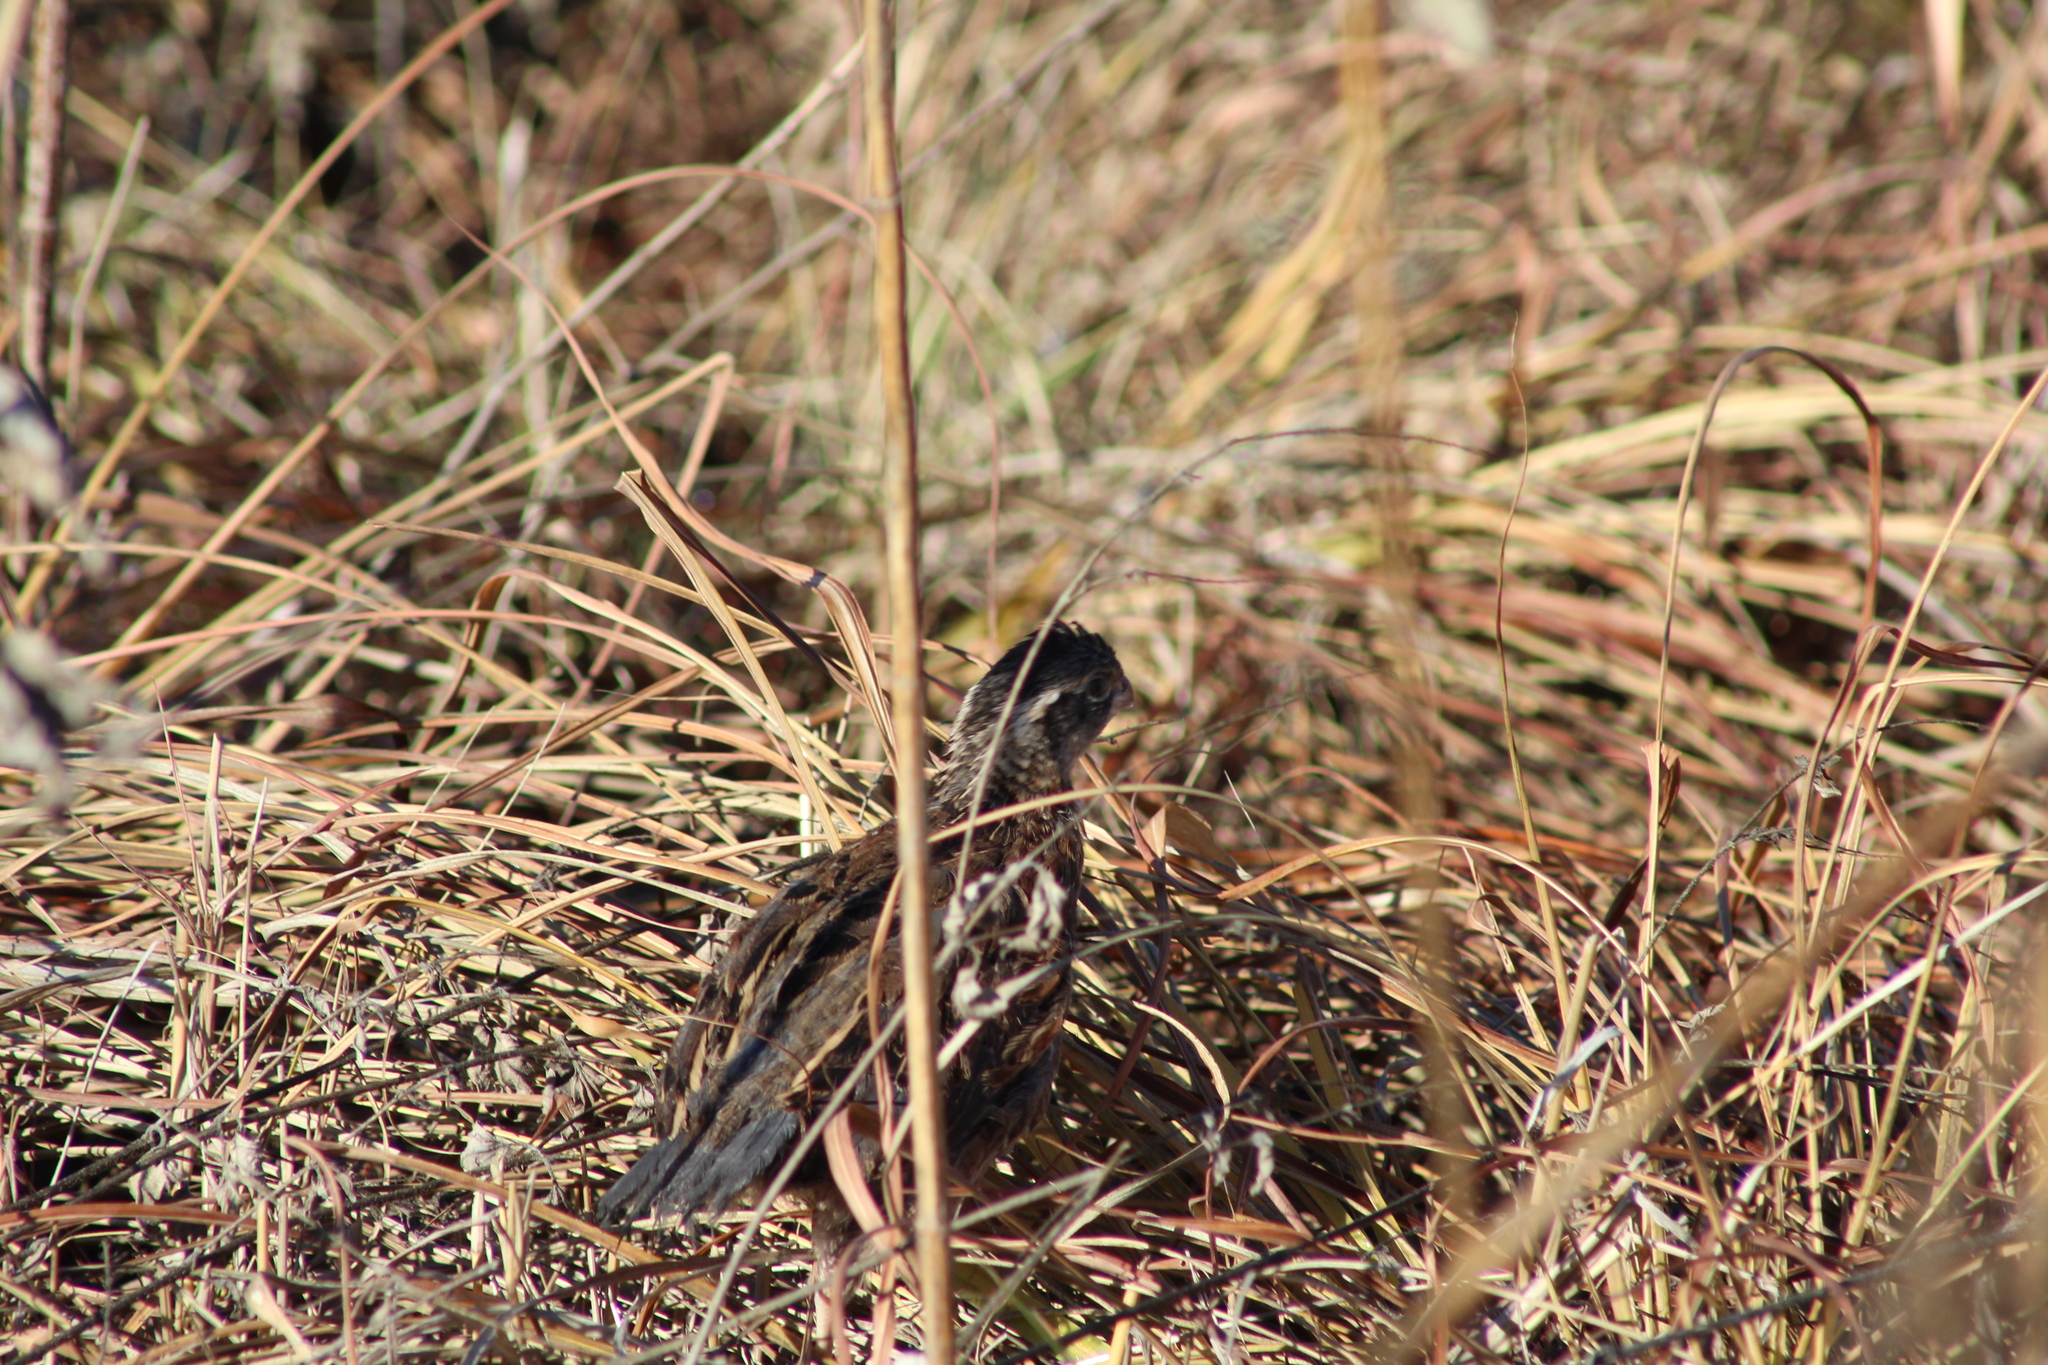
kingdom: Animalia
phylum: Chordata
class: Aves
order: Galliformes
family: Odontophoridae
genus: Colinus
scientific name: Colinus virginianus
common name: Northern bobwhite
